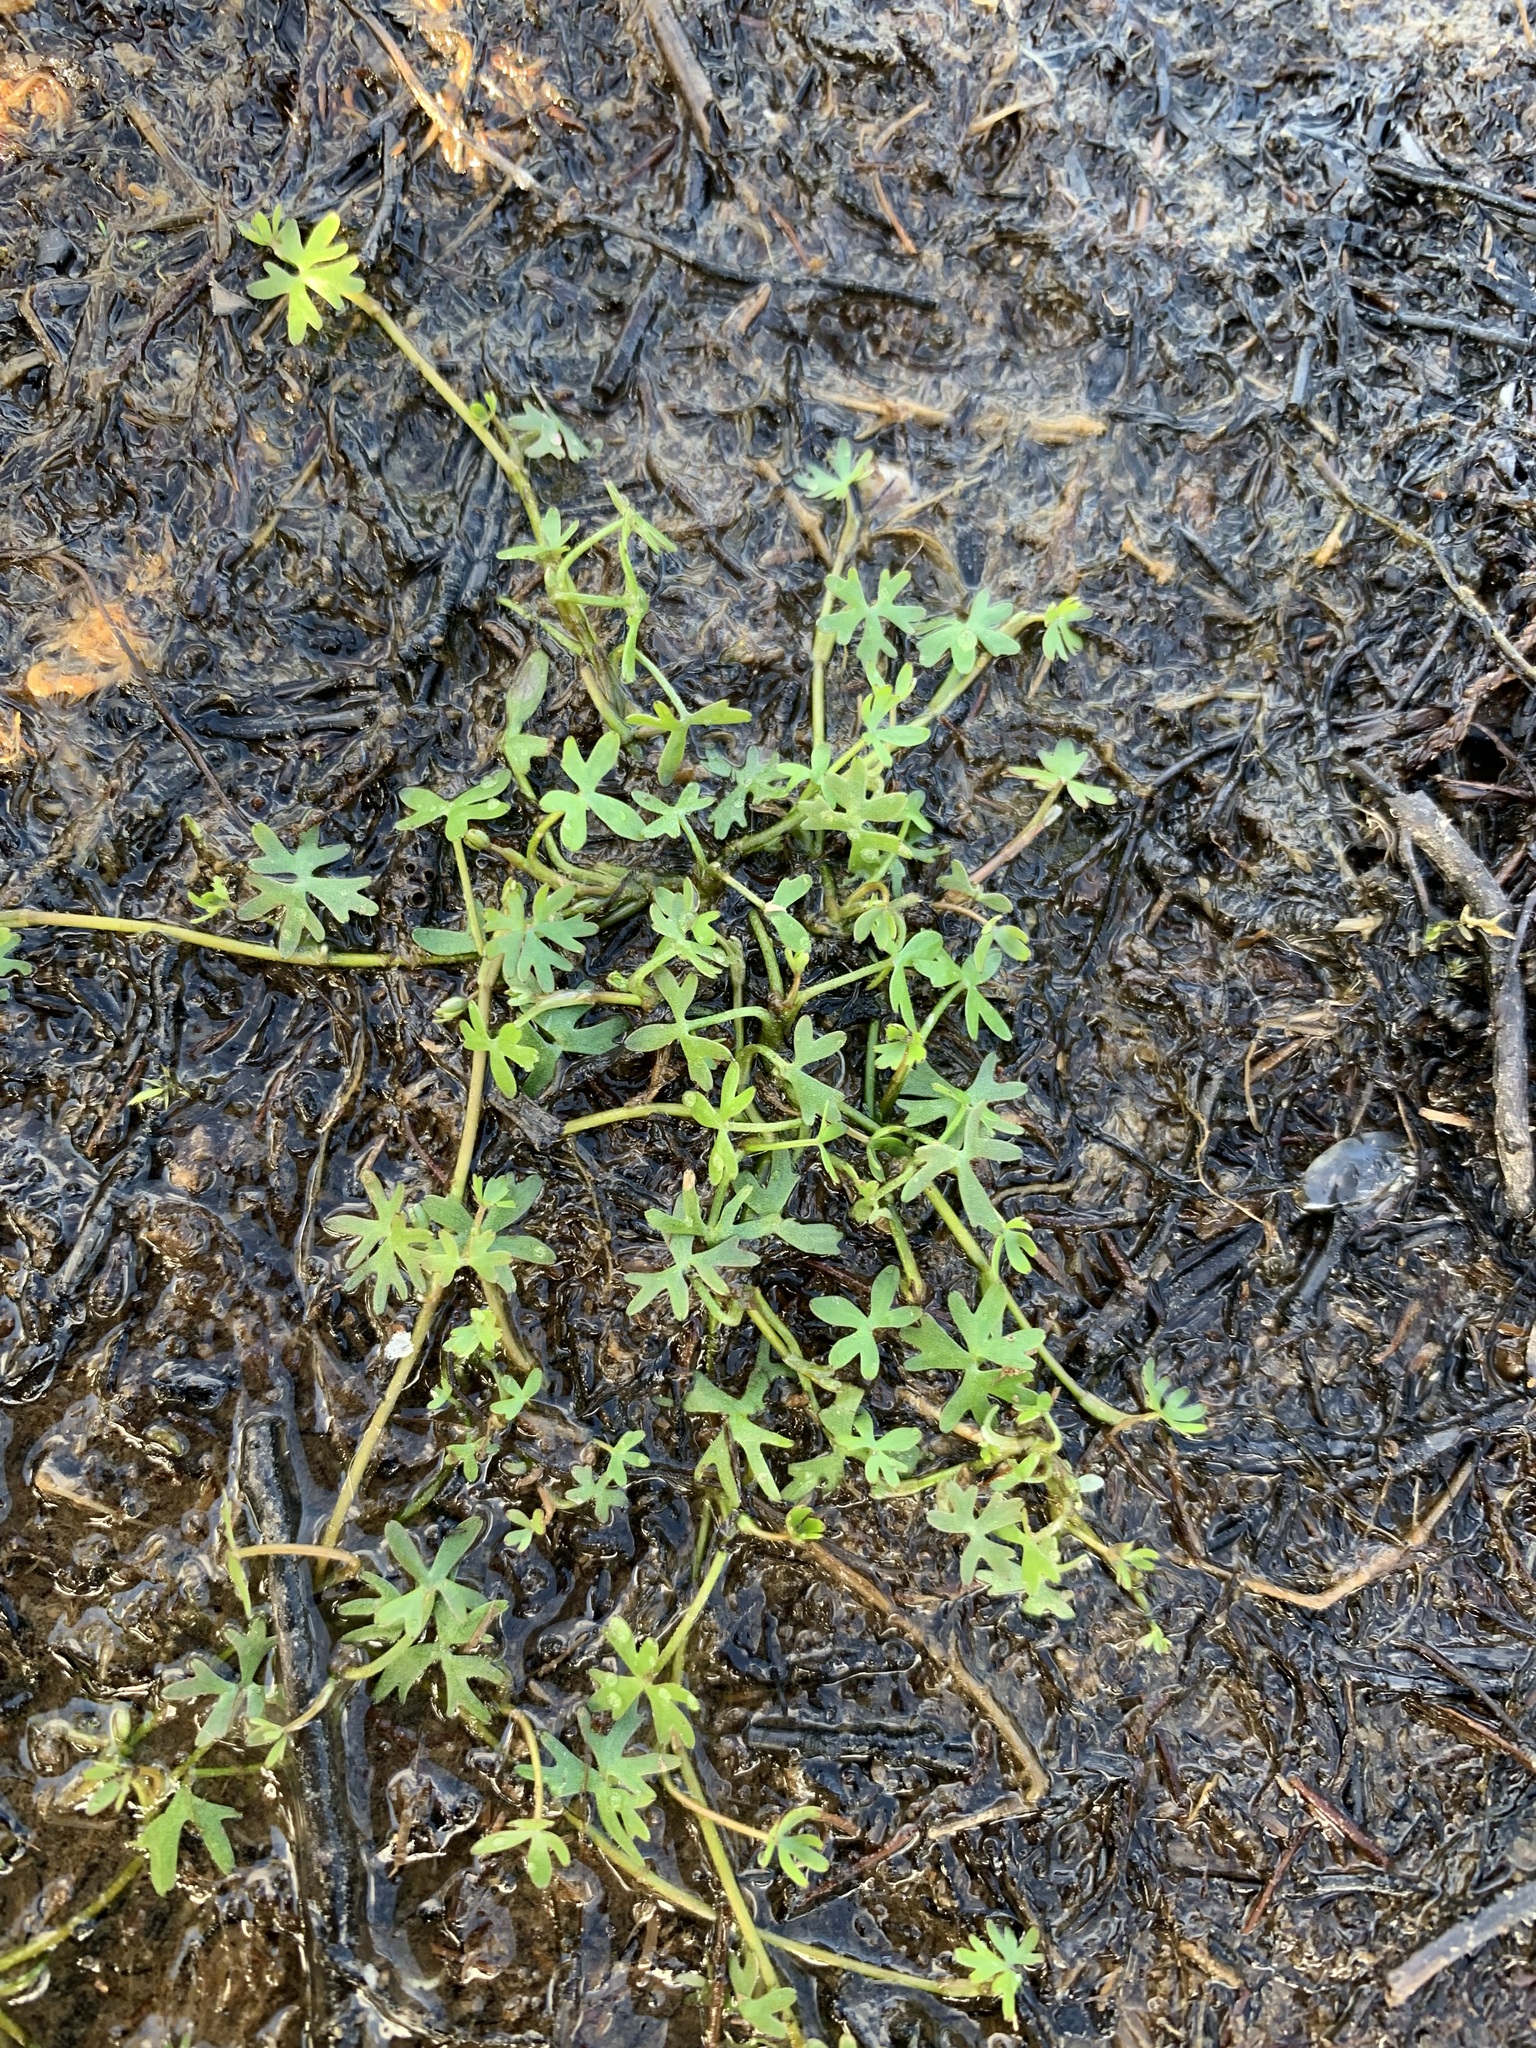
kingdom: Plantae
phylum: Tracheophyta
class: Magnoliopsida
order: Ranunculales
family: Ranunculaceae
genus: Ranunculus
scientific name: Ranunculus gmelinii
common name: Gmelin's buttercup
